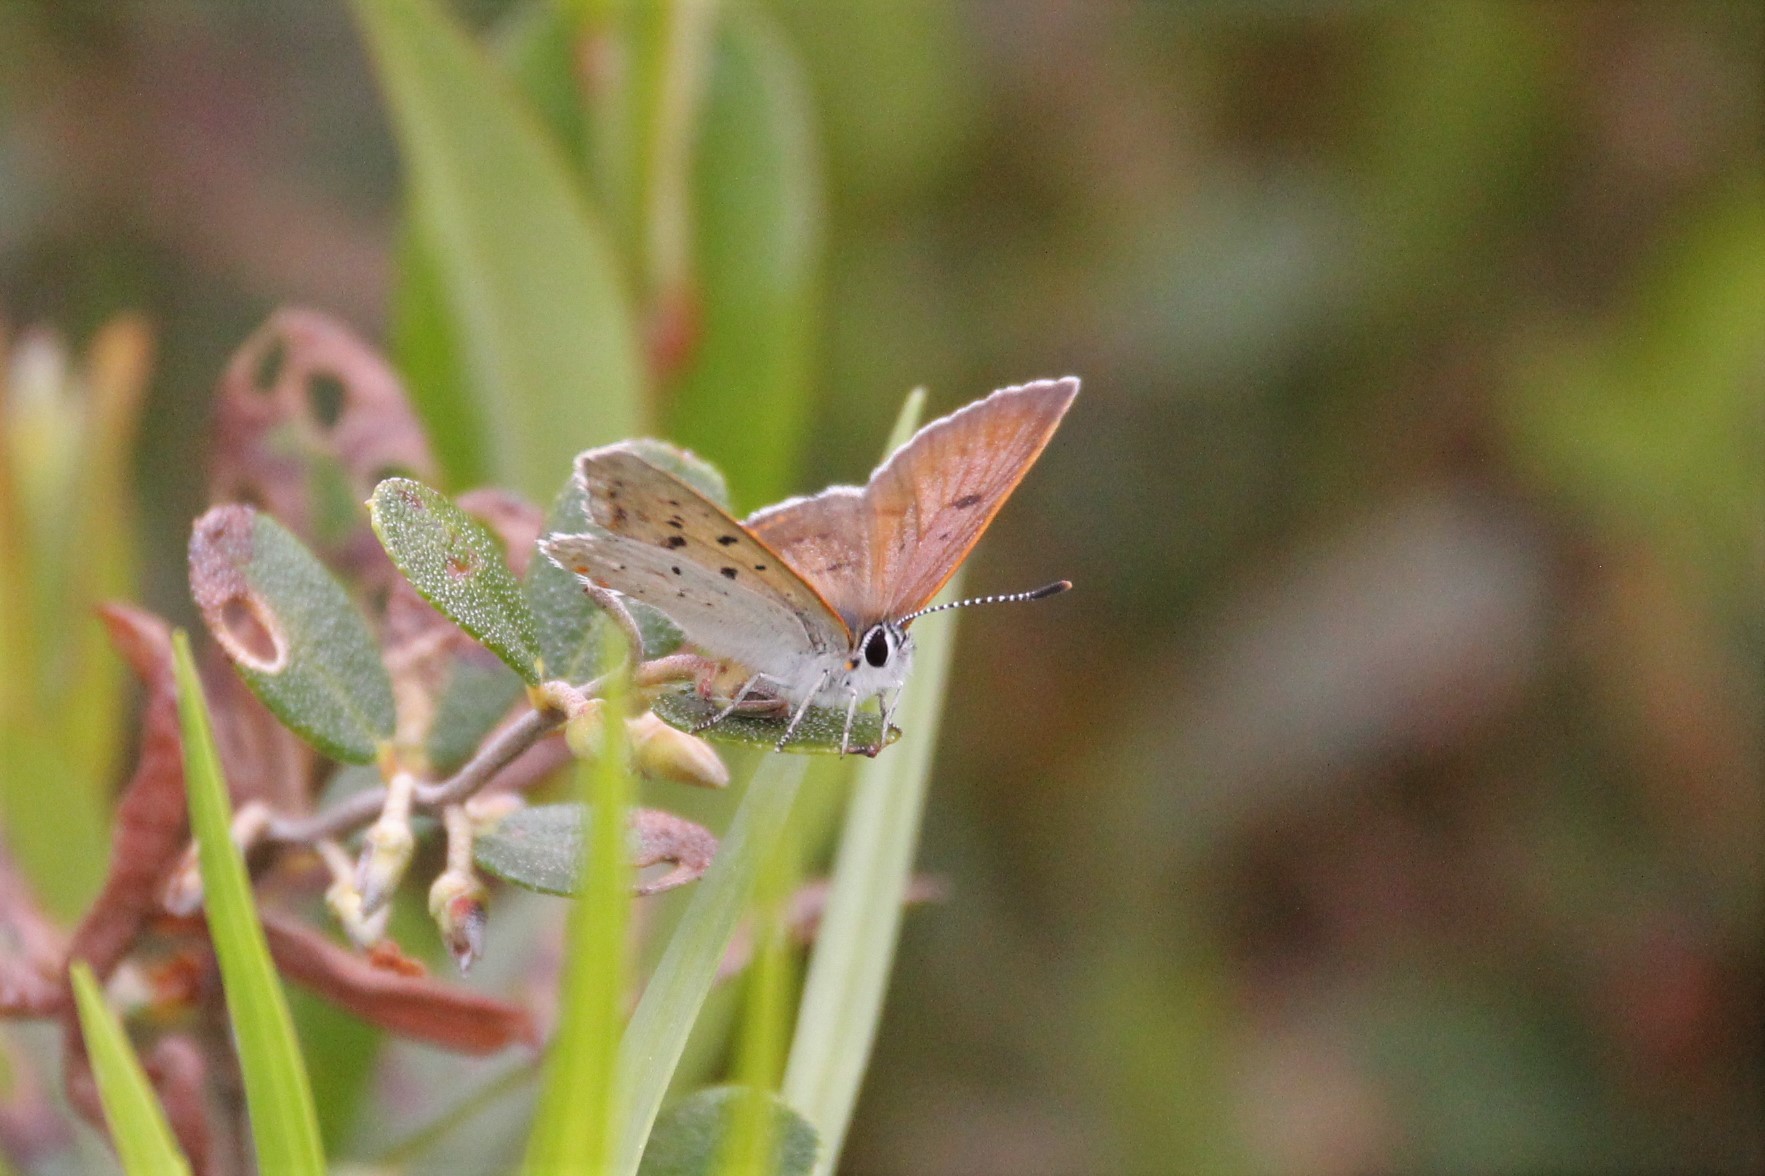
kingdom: Animalia
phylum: Arthropoda
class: Insecta
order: Lepidoptera
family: Lycaenidae
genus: Tharsalea
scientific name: Tharsalea epixanthe
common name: Bog copper
